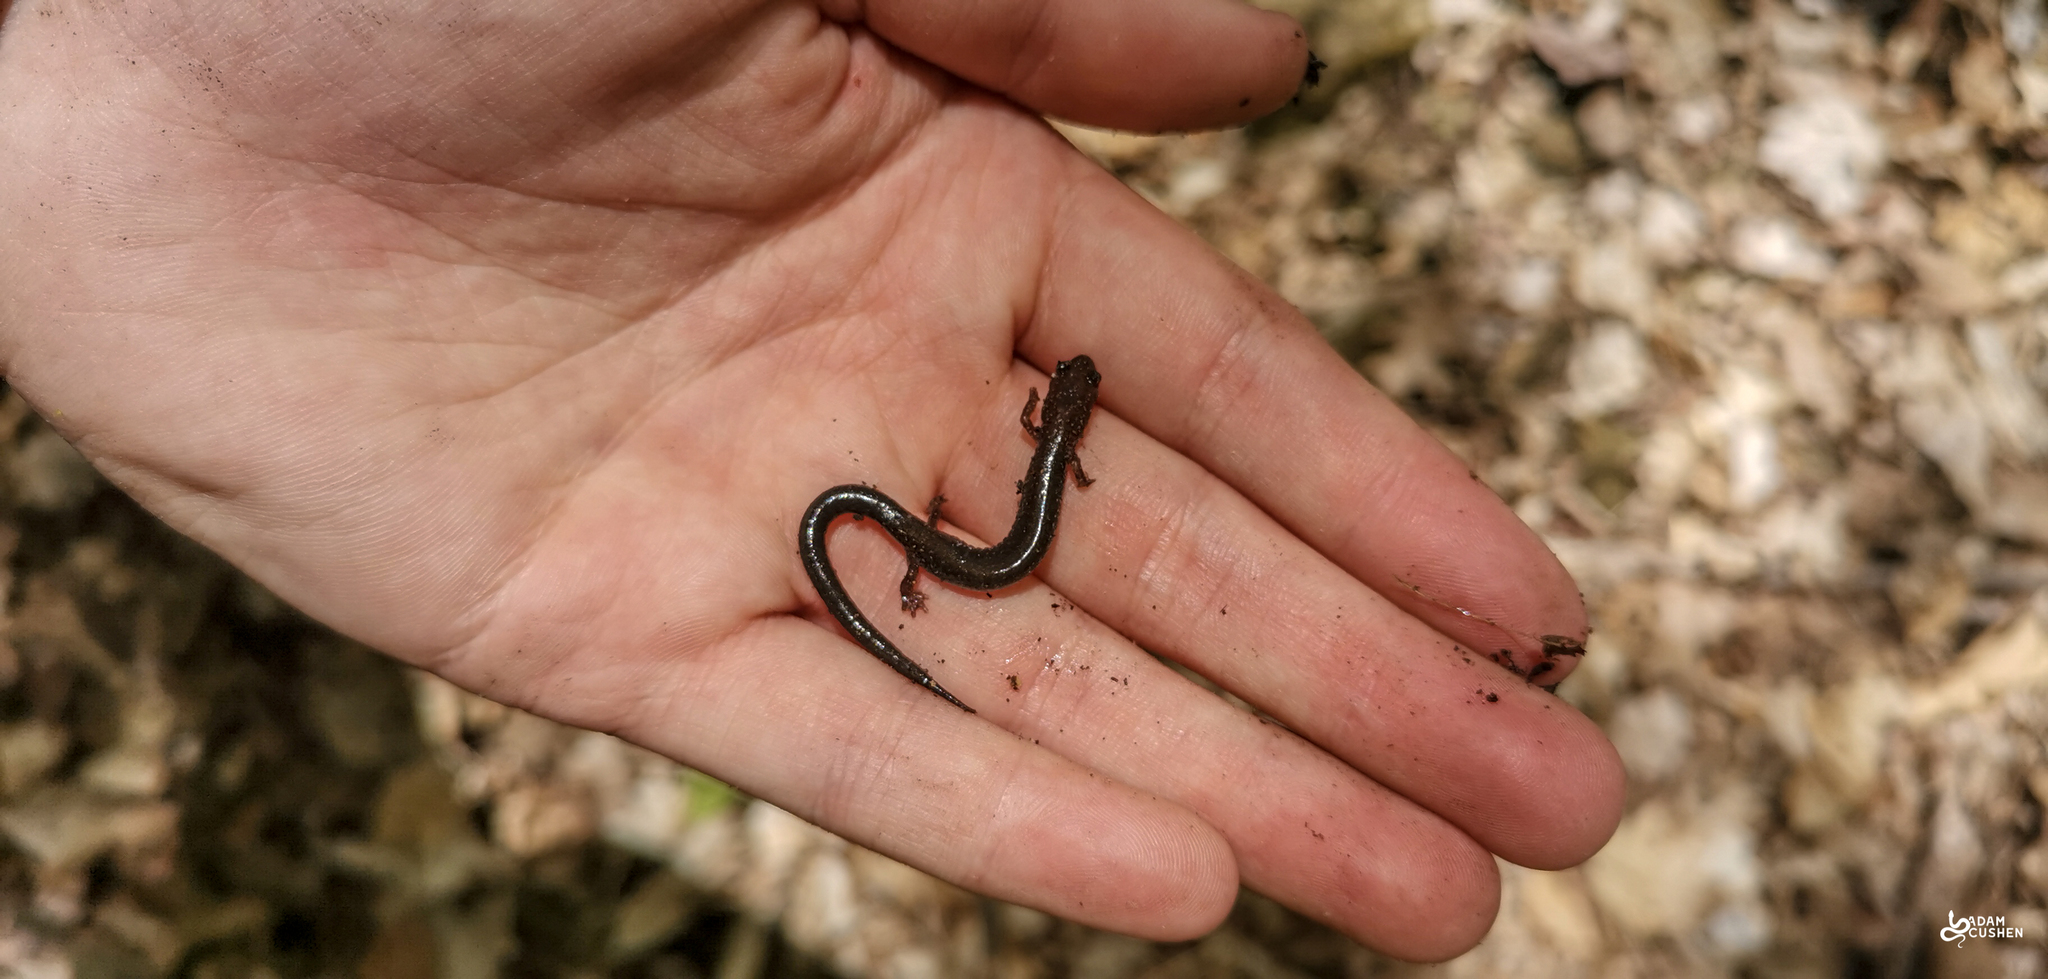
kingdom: Animalia
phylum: Chordata
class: Amphibia
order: Caudata
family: Plethodontidae
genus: Plethodon
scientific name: Plethodon cinereus
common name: Redback salamander
